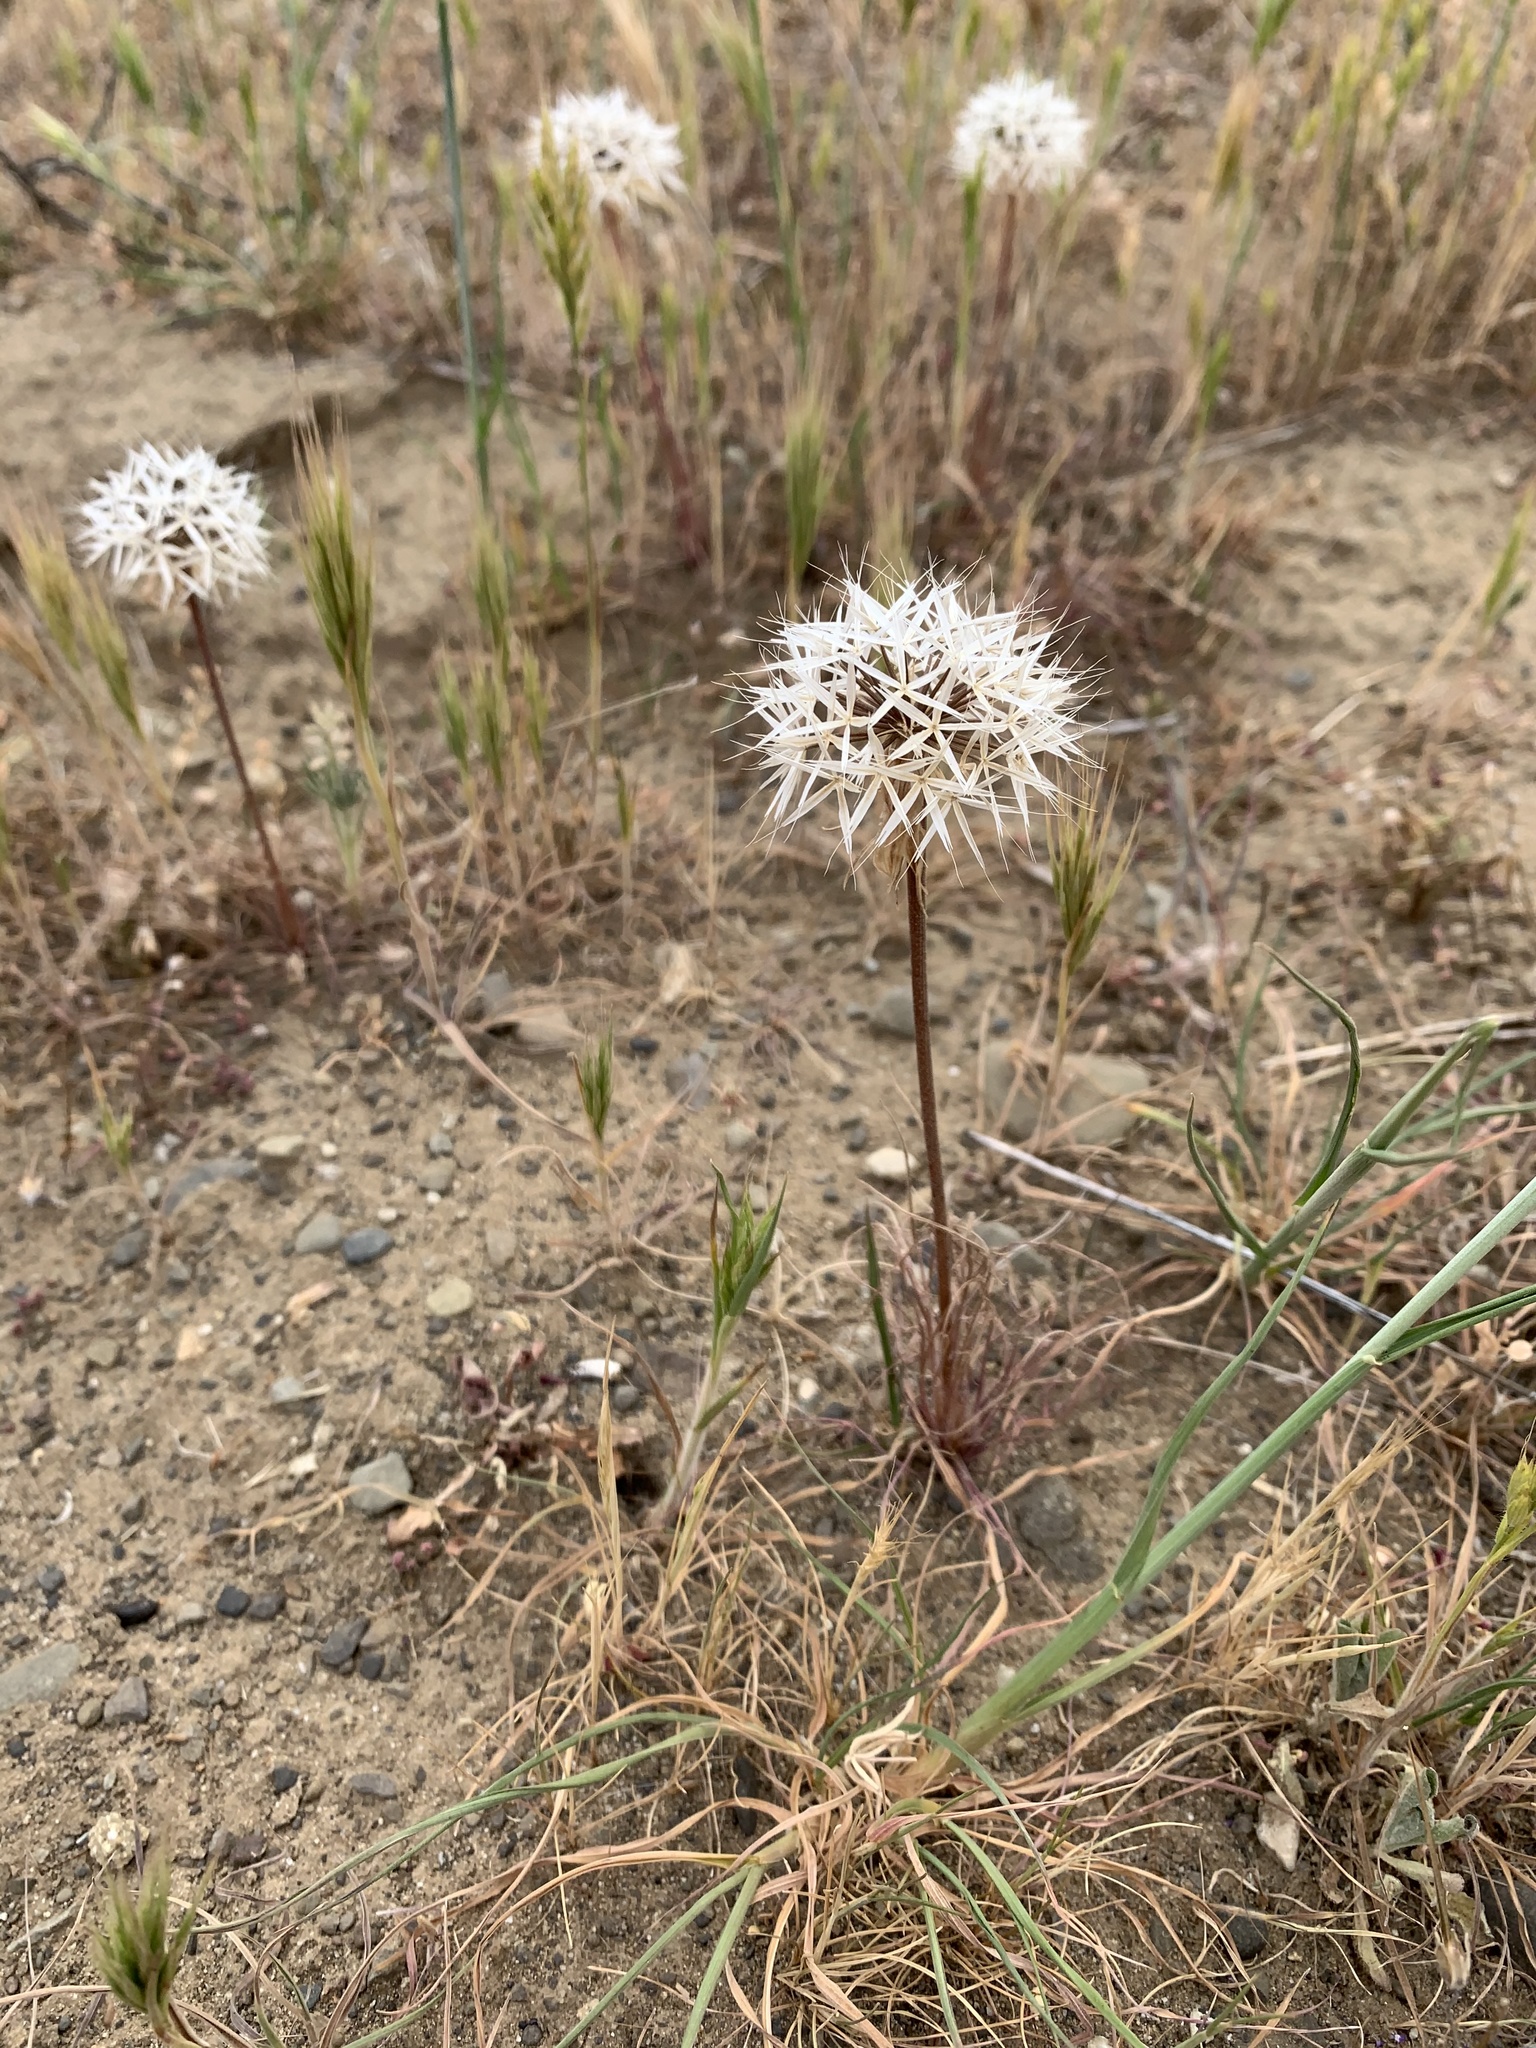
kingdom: Plantae
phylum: Tracheophyta
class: Magnoliopsida
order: Asterales
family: Asteraceae
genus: Microseris
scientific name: Microseris lindleyi
